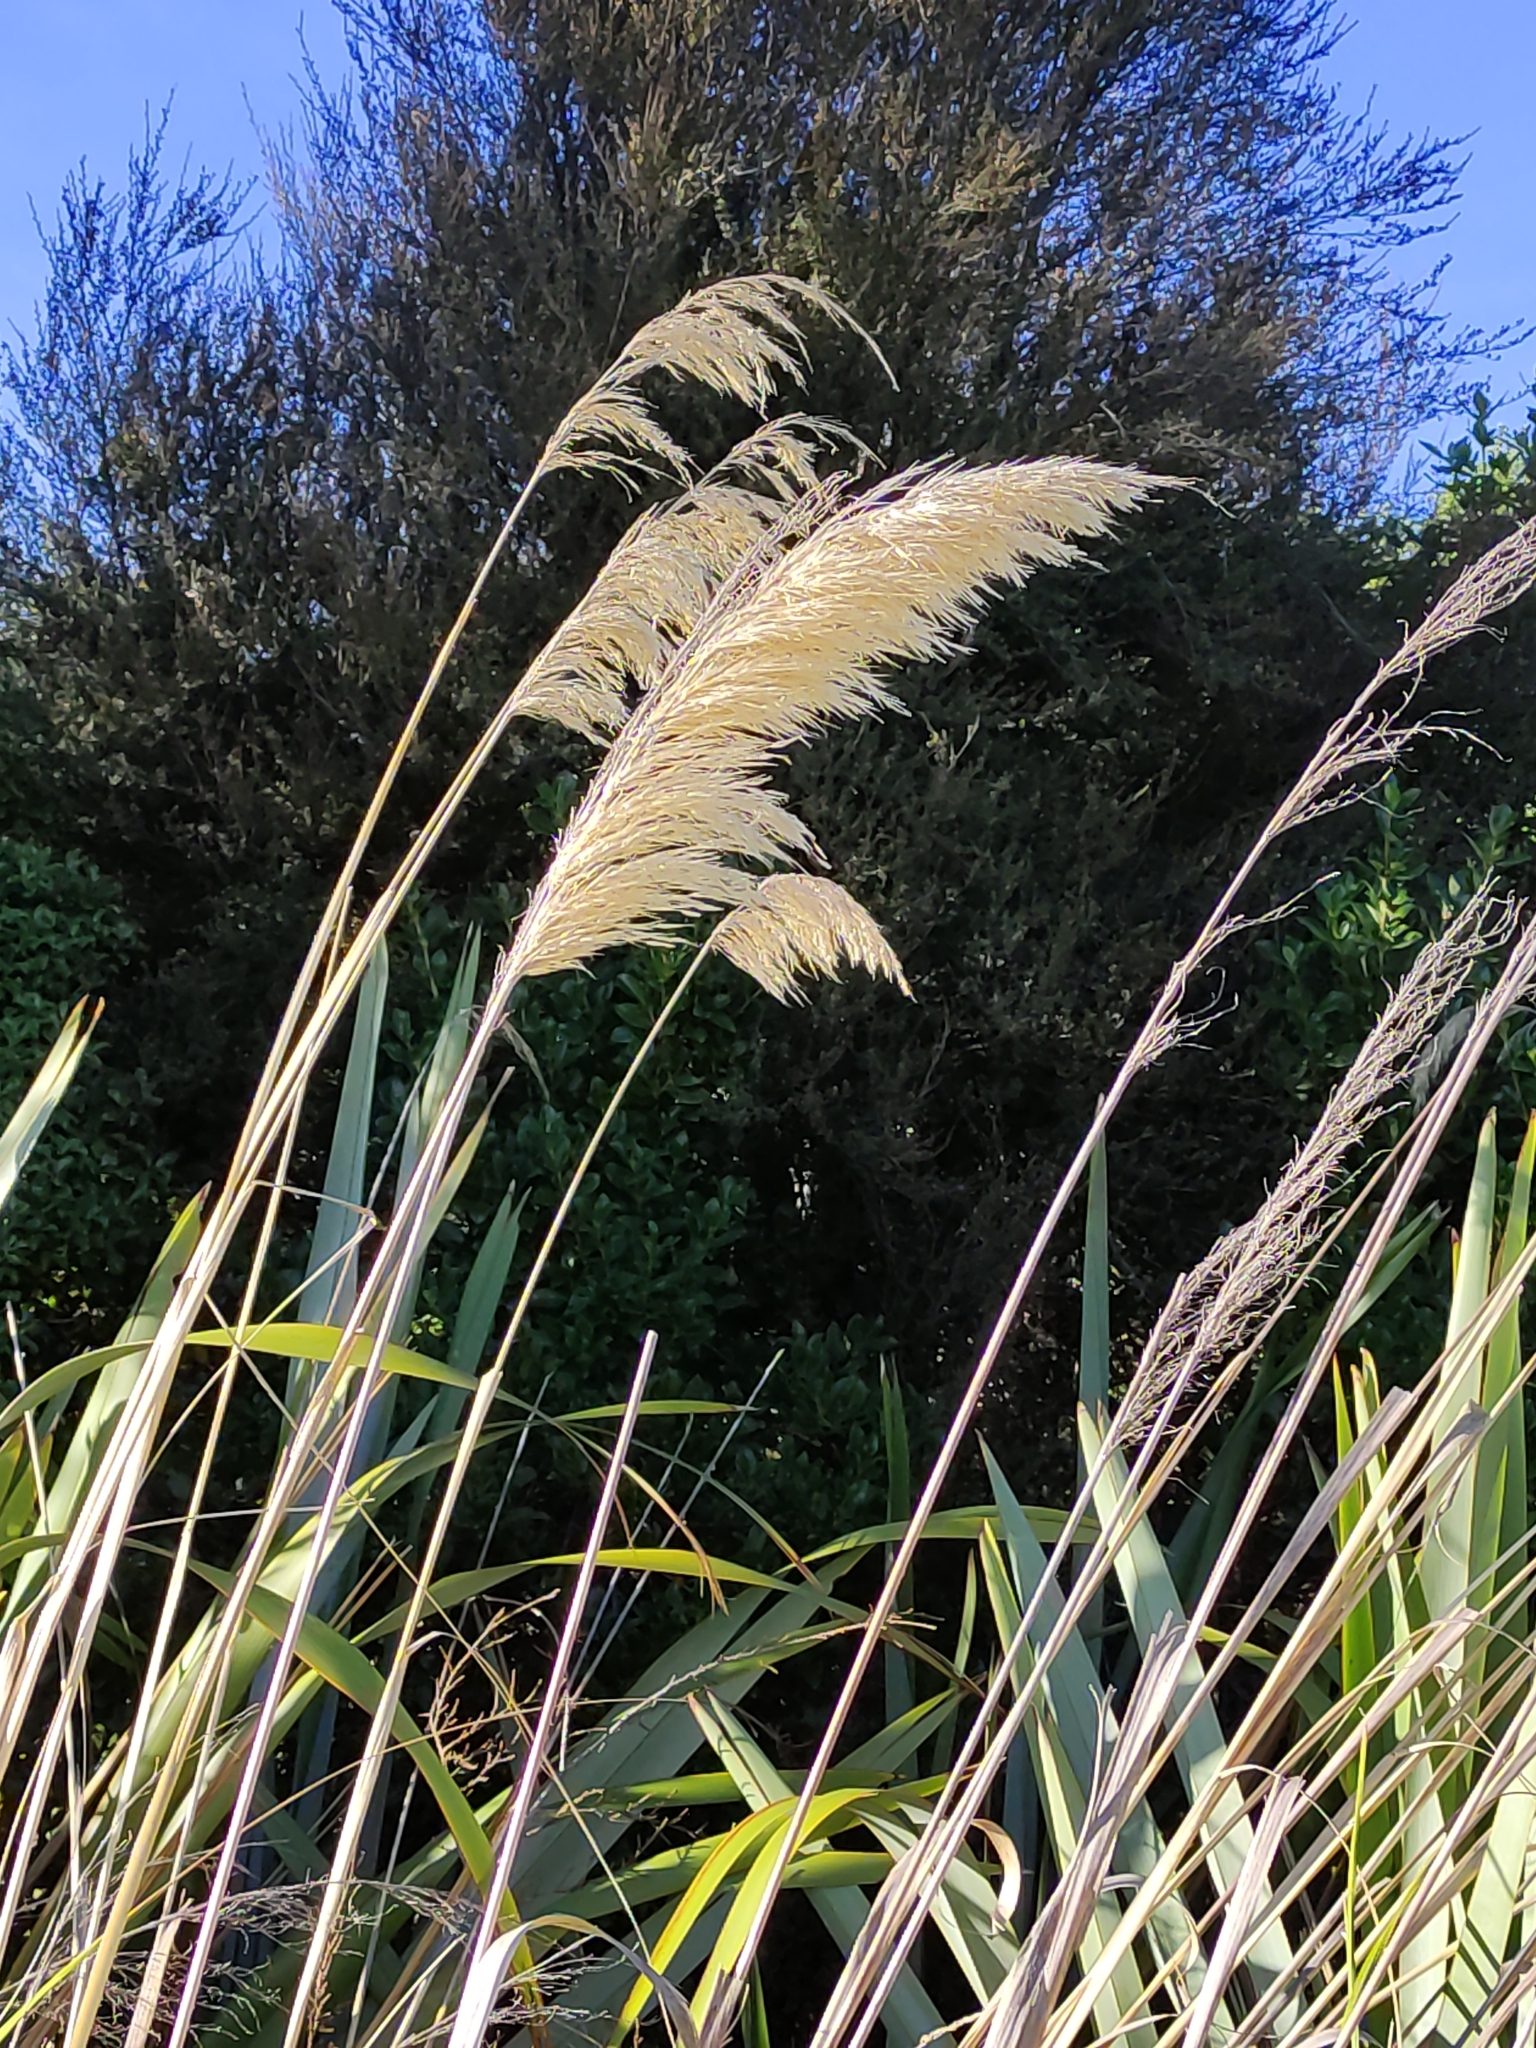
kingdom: Plantae
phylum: Tracheophyta
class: Liliopsida
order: Poales
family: Poaceae
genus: Austroderia
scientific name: Austroderia richardii
